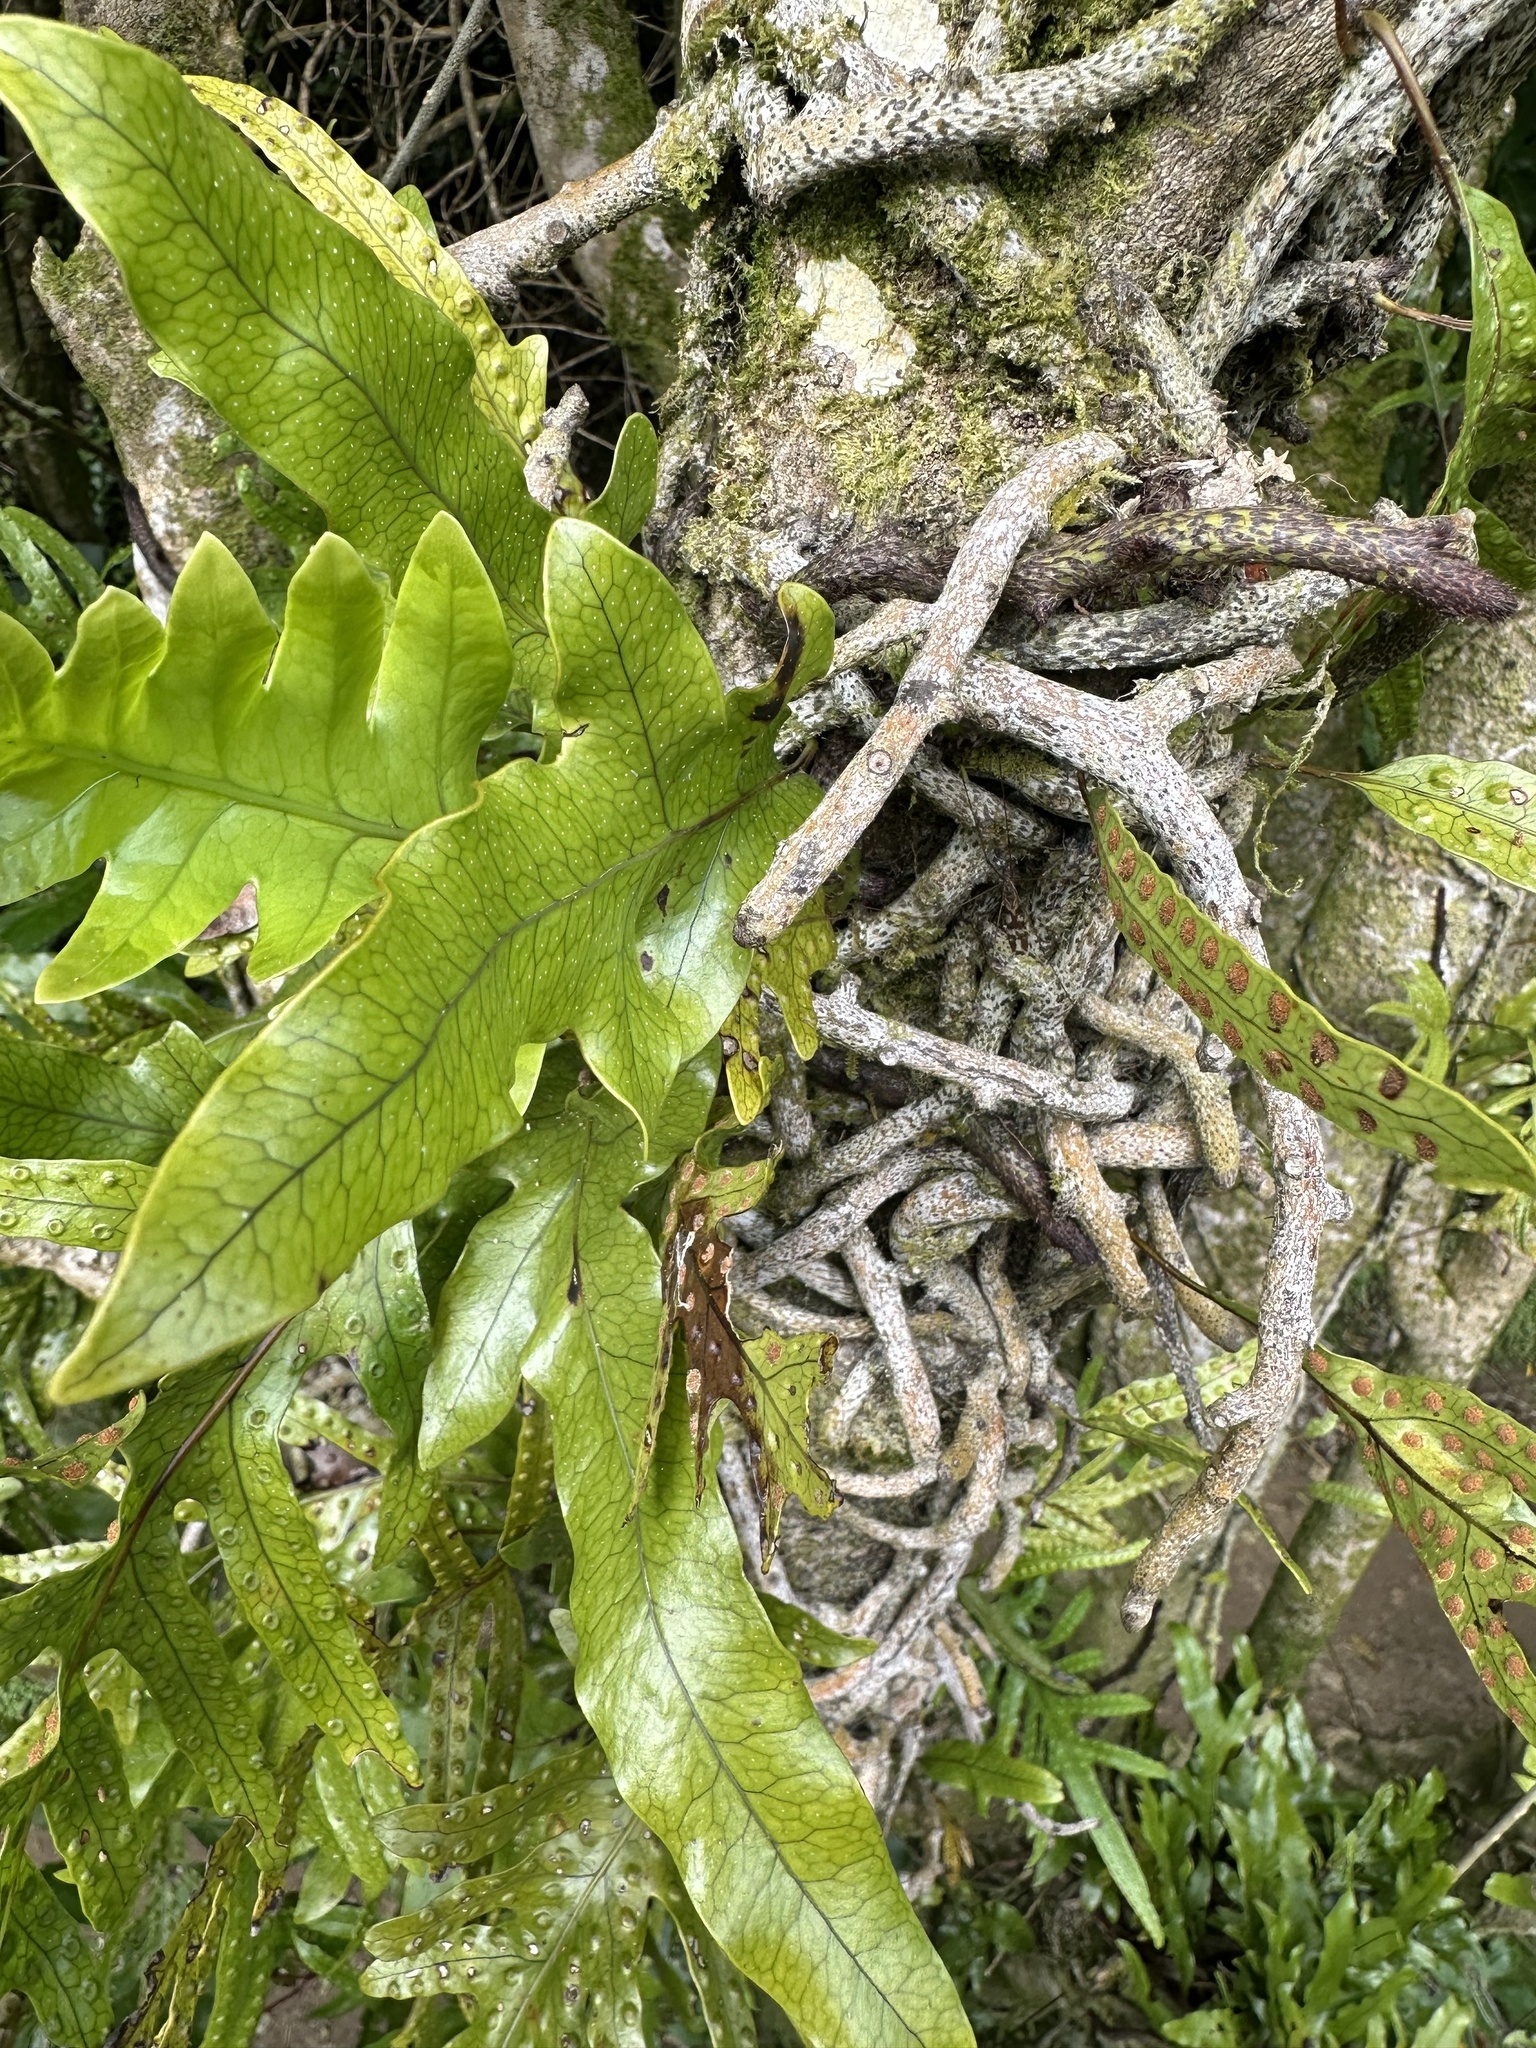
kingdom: Plantae
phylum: Tracheophyta
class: Polypodiopsida
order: Polypodiales
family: Polypodiaceae
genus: Lecanopteris
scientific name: Lecanopteris pustulata
